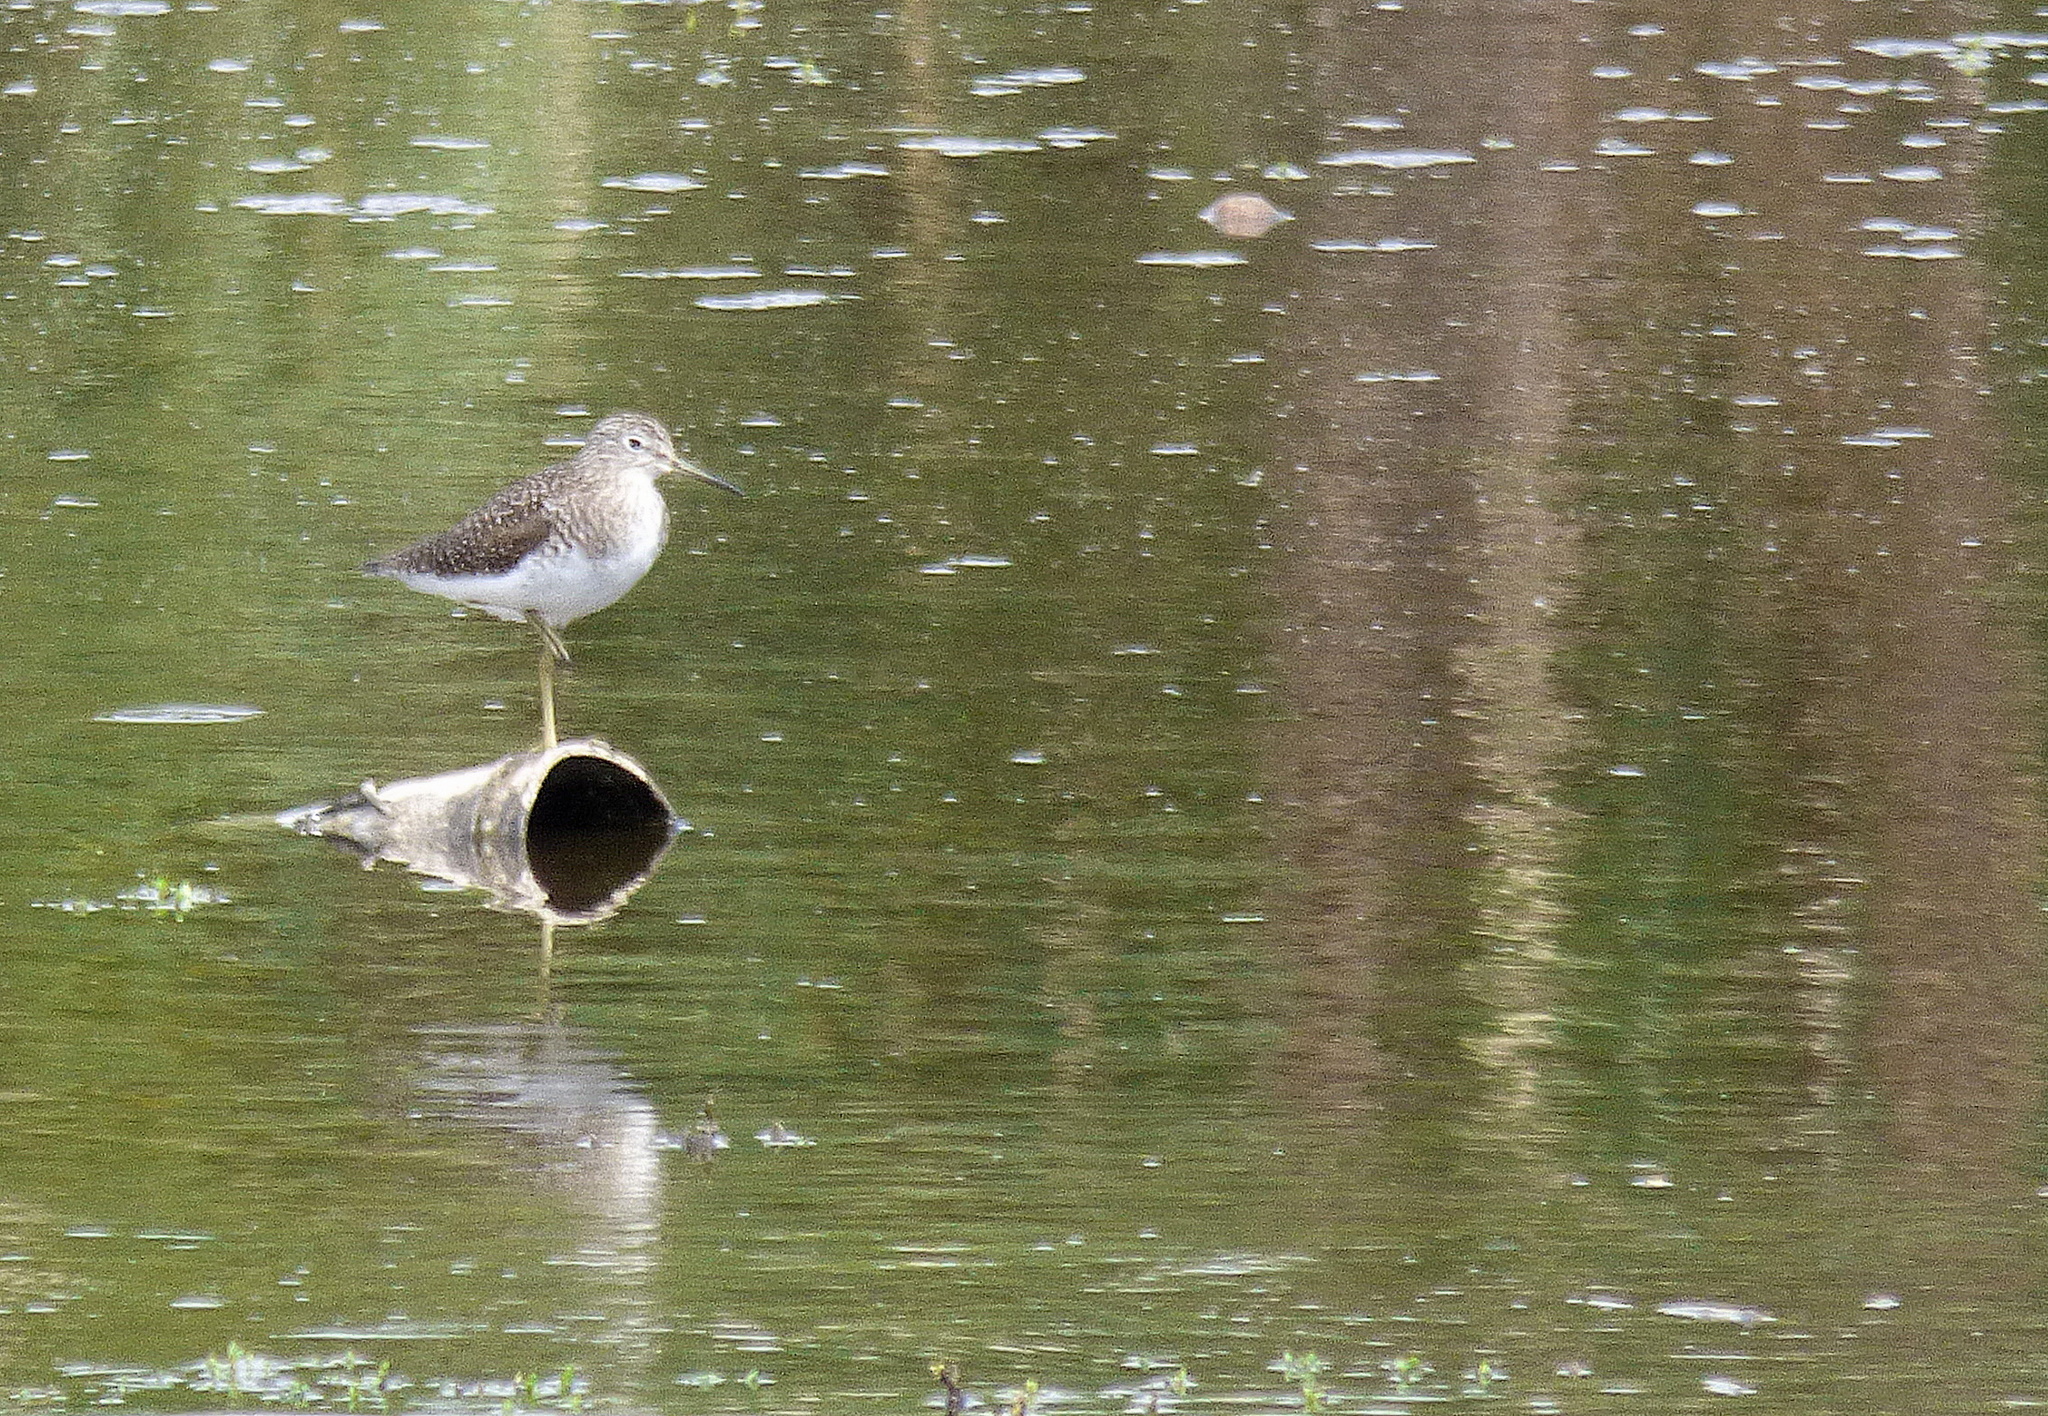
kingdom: Animalia
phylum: Chordata
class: Aves
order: Charadriiformes
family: Scolopacidae
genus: Tringa
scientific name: Tringa solitaria
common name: Solitary sandpiper
